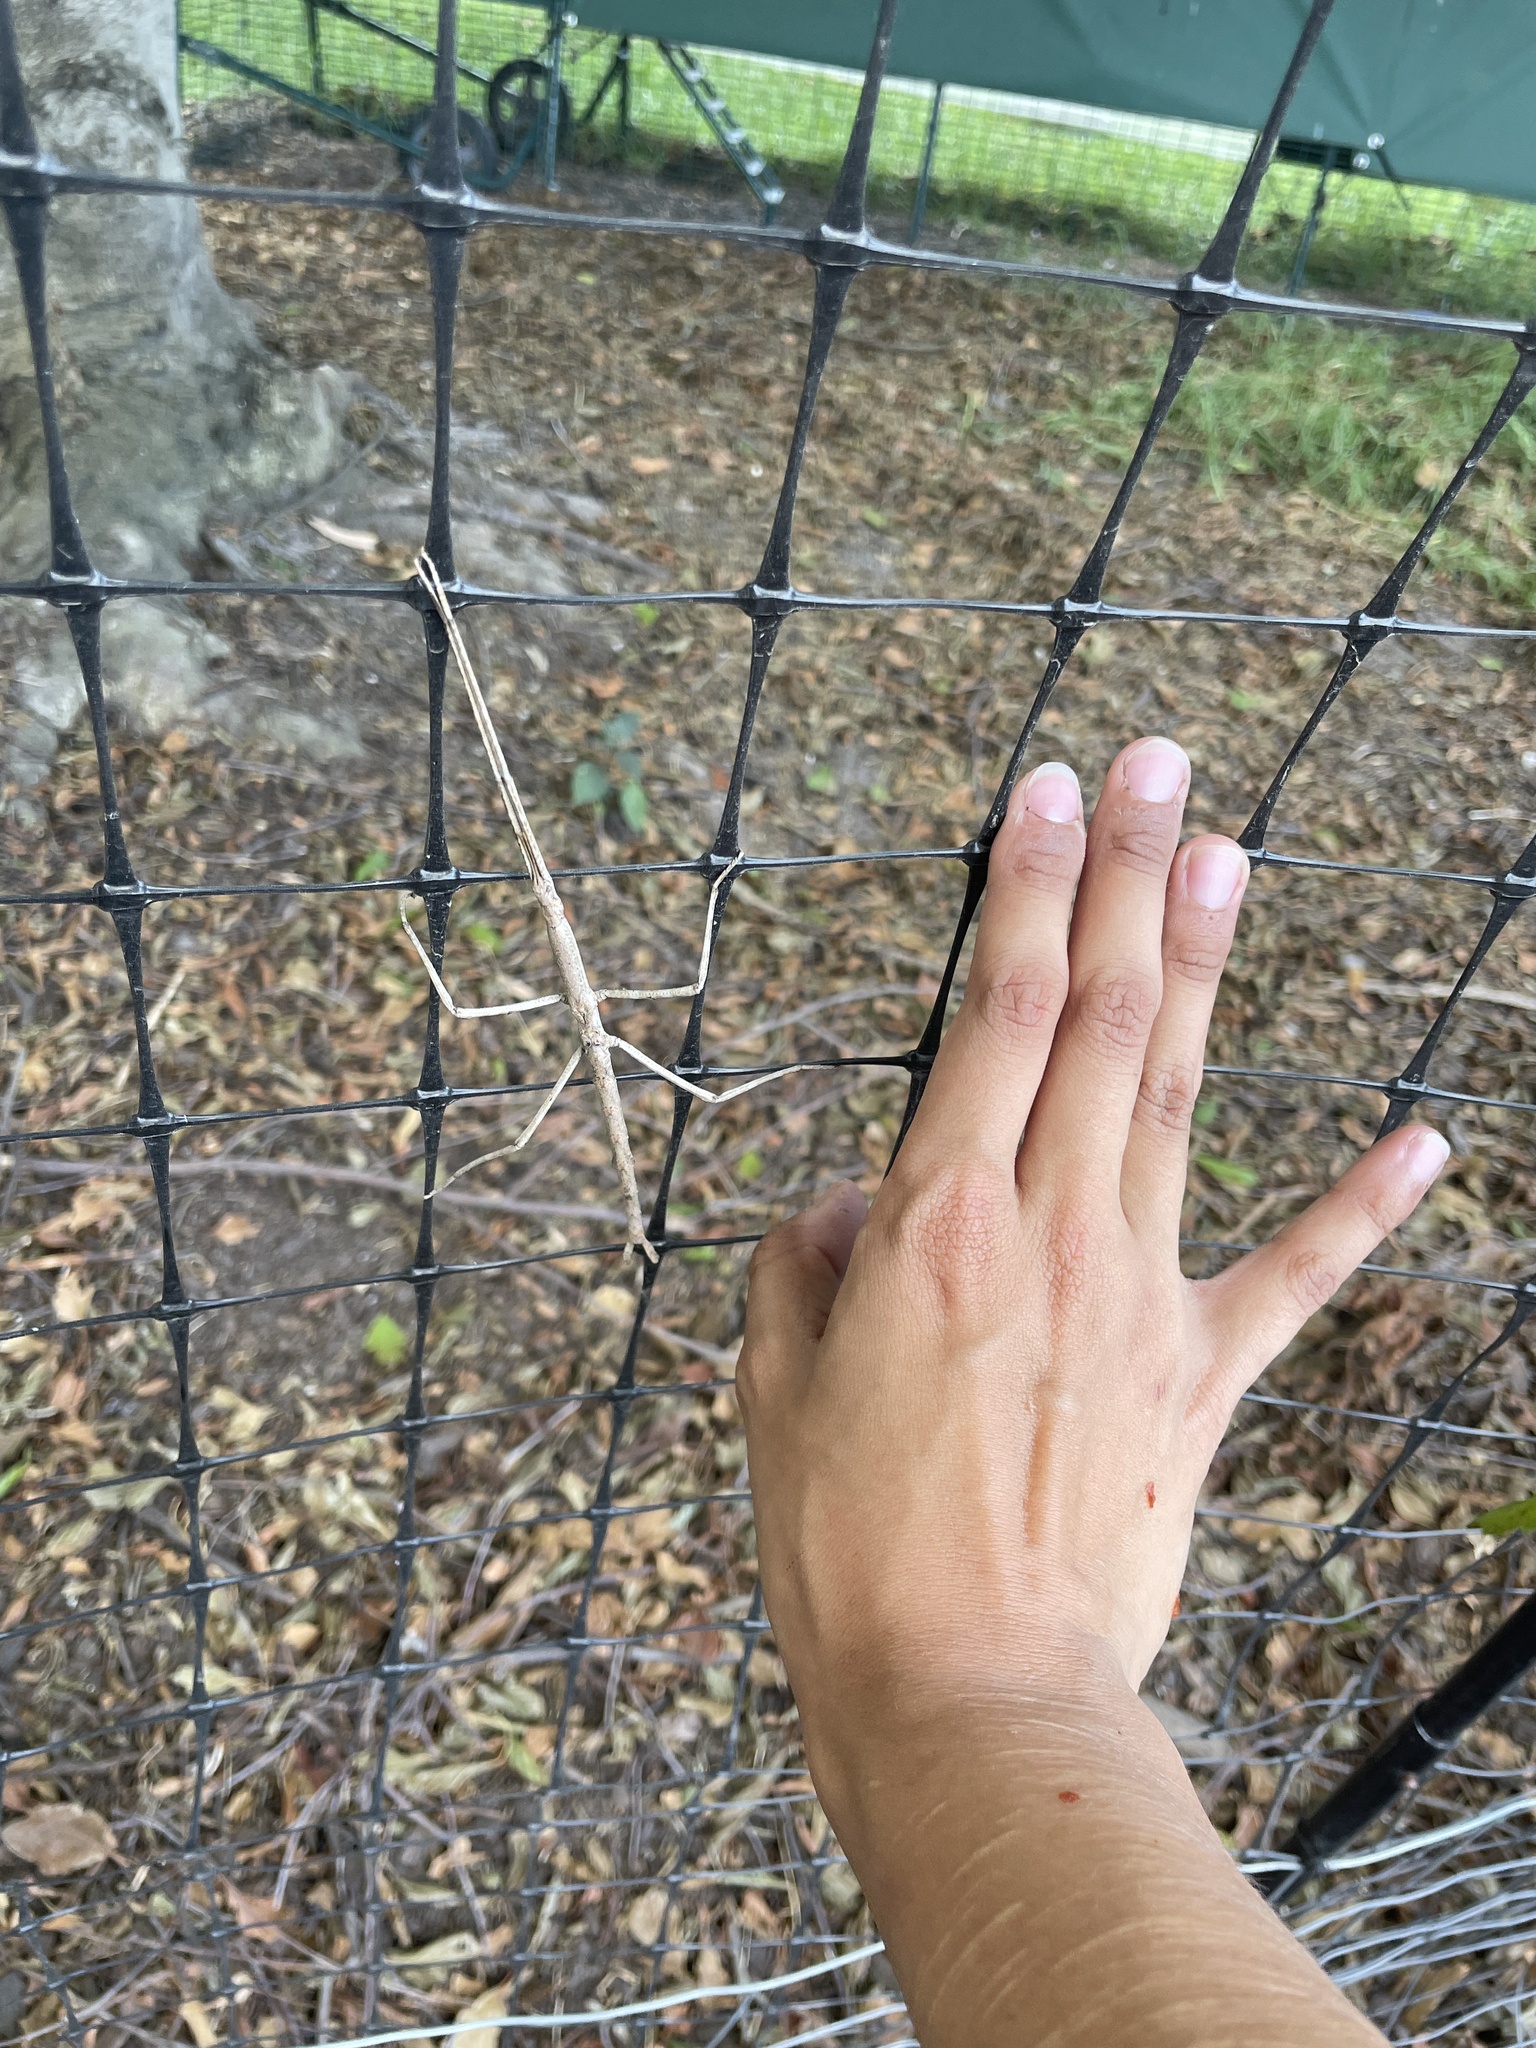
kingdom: Animalia
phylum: Arthropoda
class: Insecta
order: Phasmida
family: Phasmatidae
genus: Ctenomorpha
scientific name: Ctenomorpha marginipennis
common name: Margined-winged stick-insect
